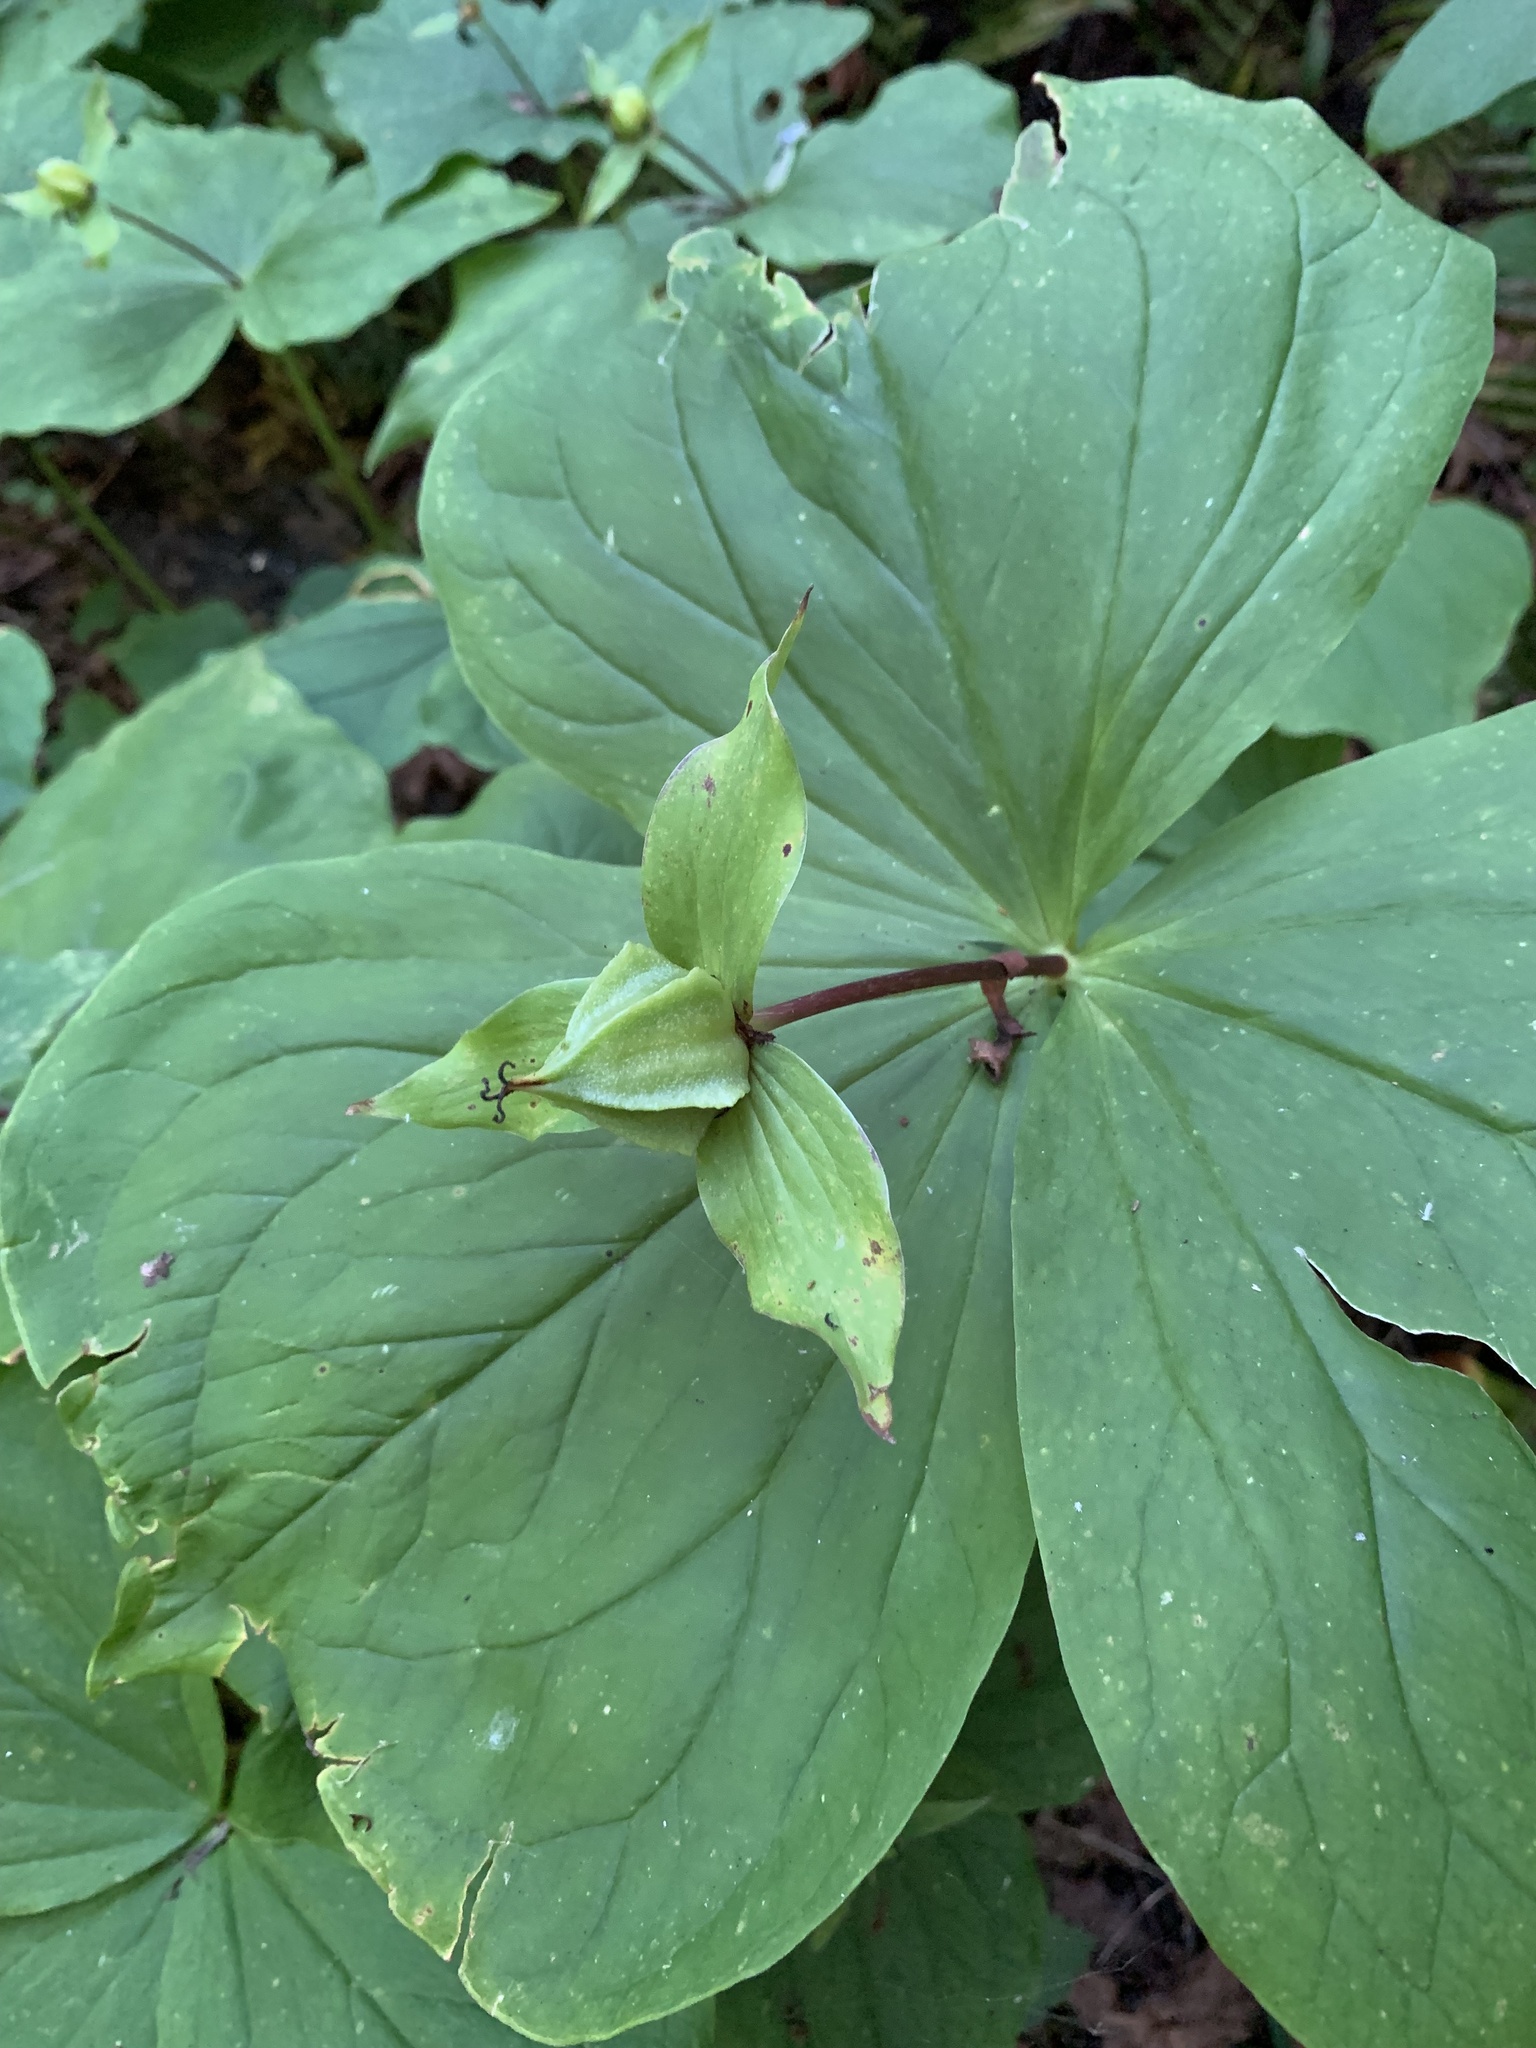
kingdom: Plantae
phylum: Tracheophyta
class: Liliopsida
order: Liliales
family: Melanthiaceae
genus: Trillium
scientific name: Trillium ovatum
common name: Pacific trillium
